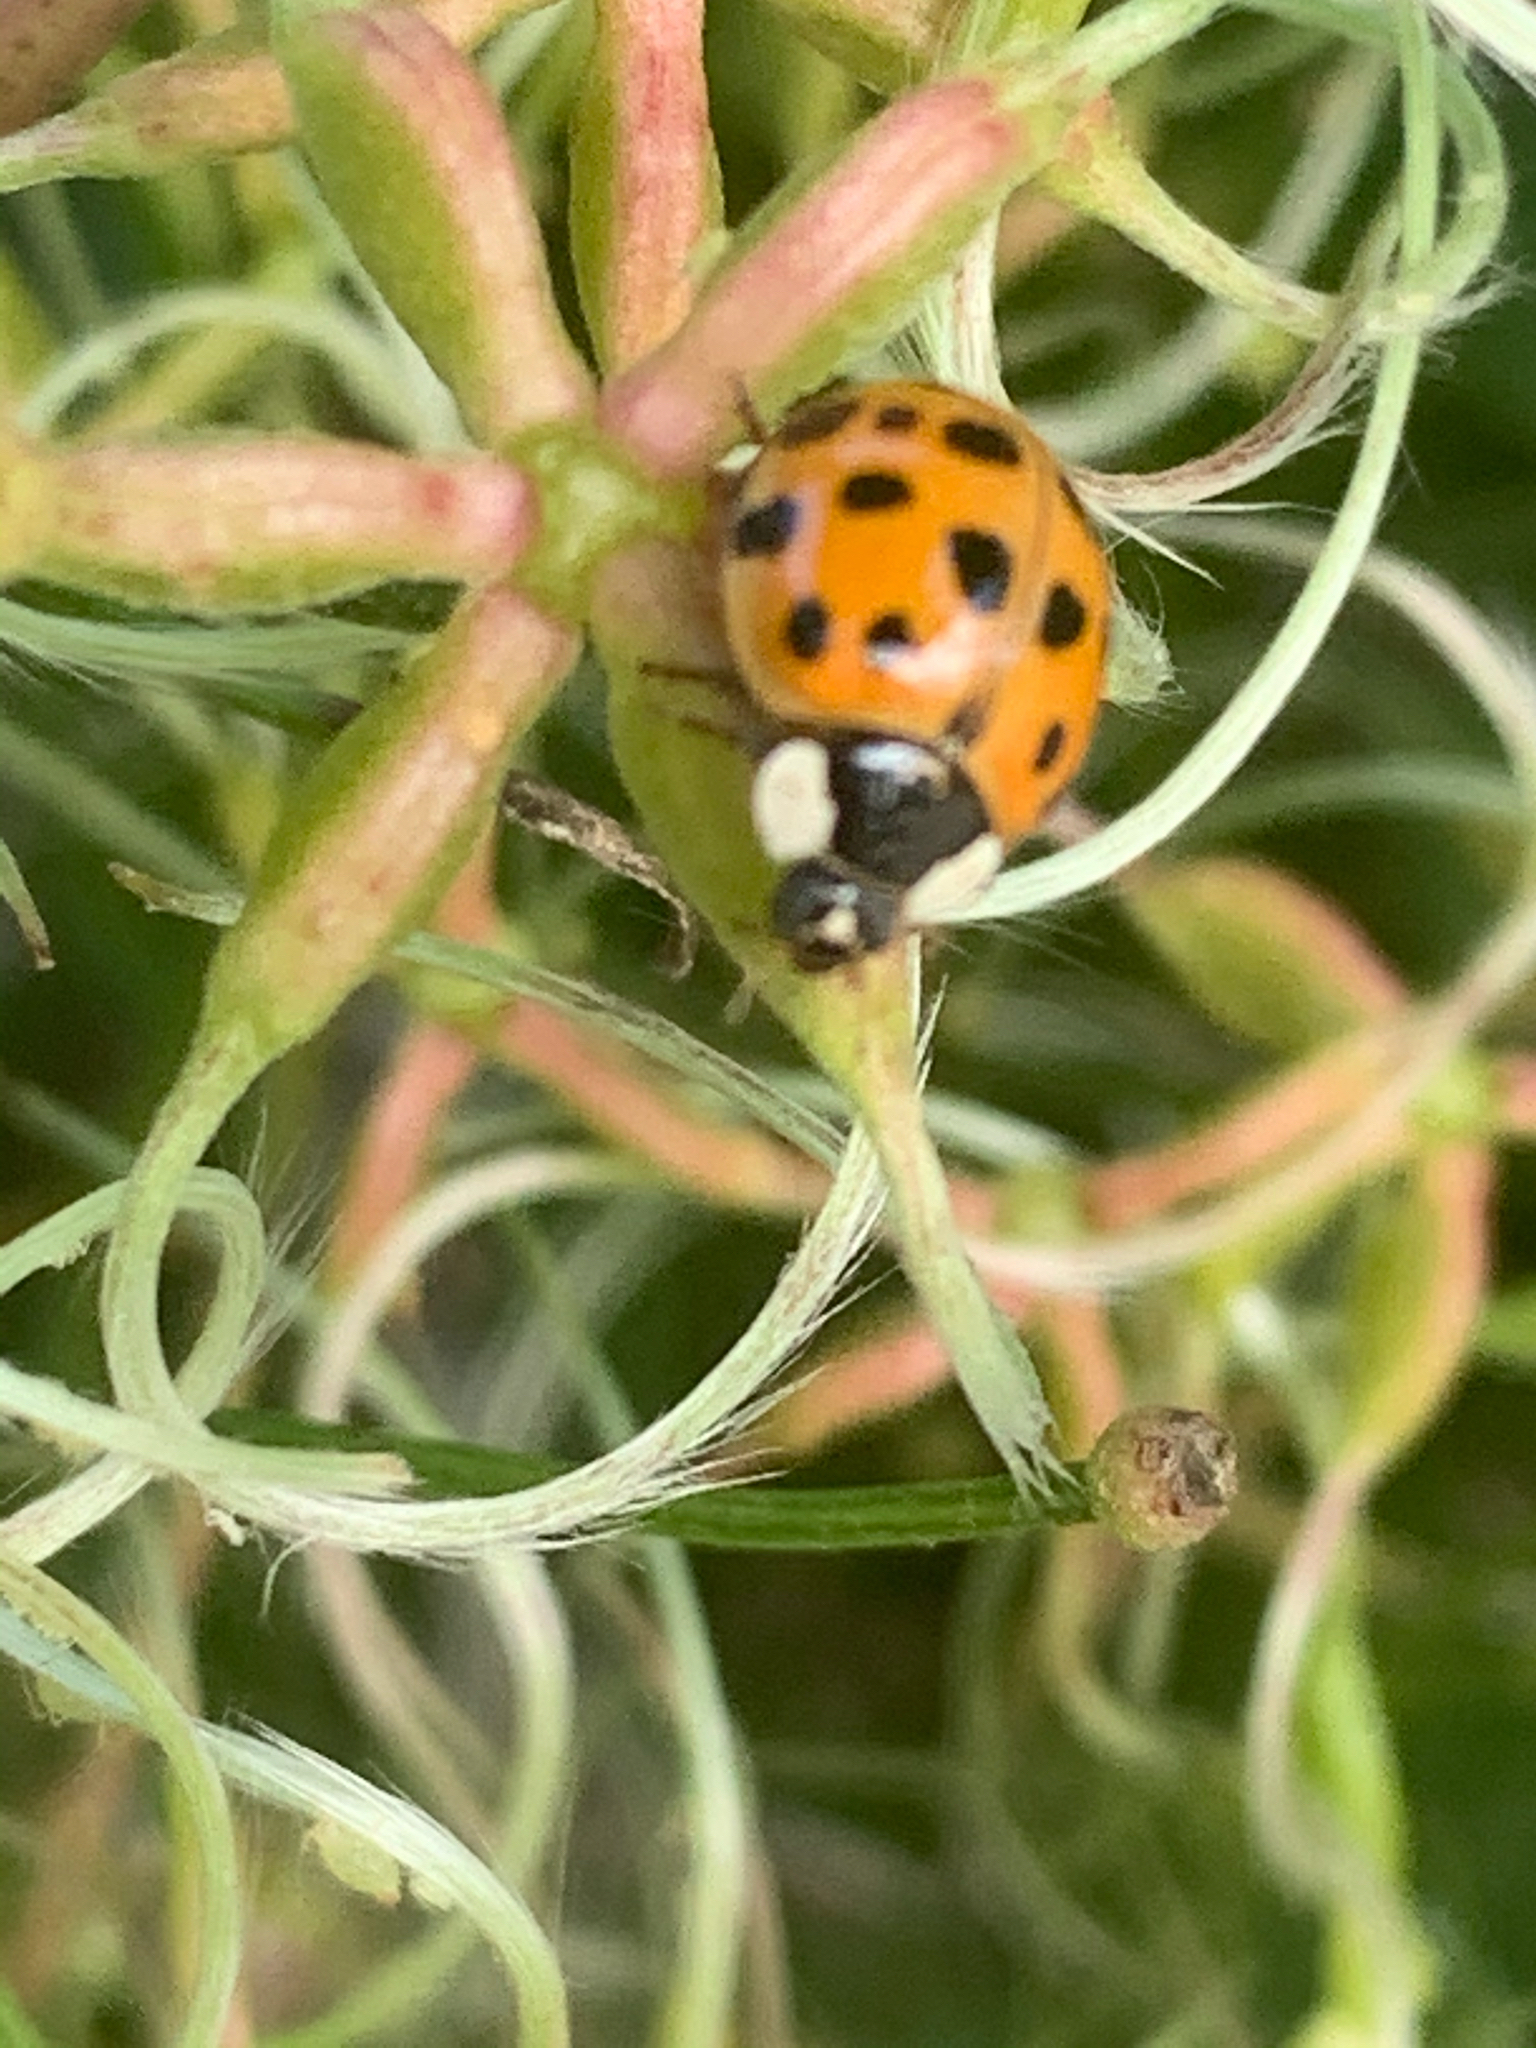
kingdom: Animalia
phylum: Arthropoda
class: Insecta
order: Coleoptera
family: Coccinellidae
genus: Harmonia
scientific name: Harmonia axyridis
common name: Harlequin ladybird
